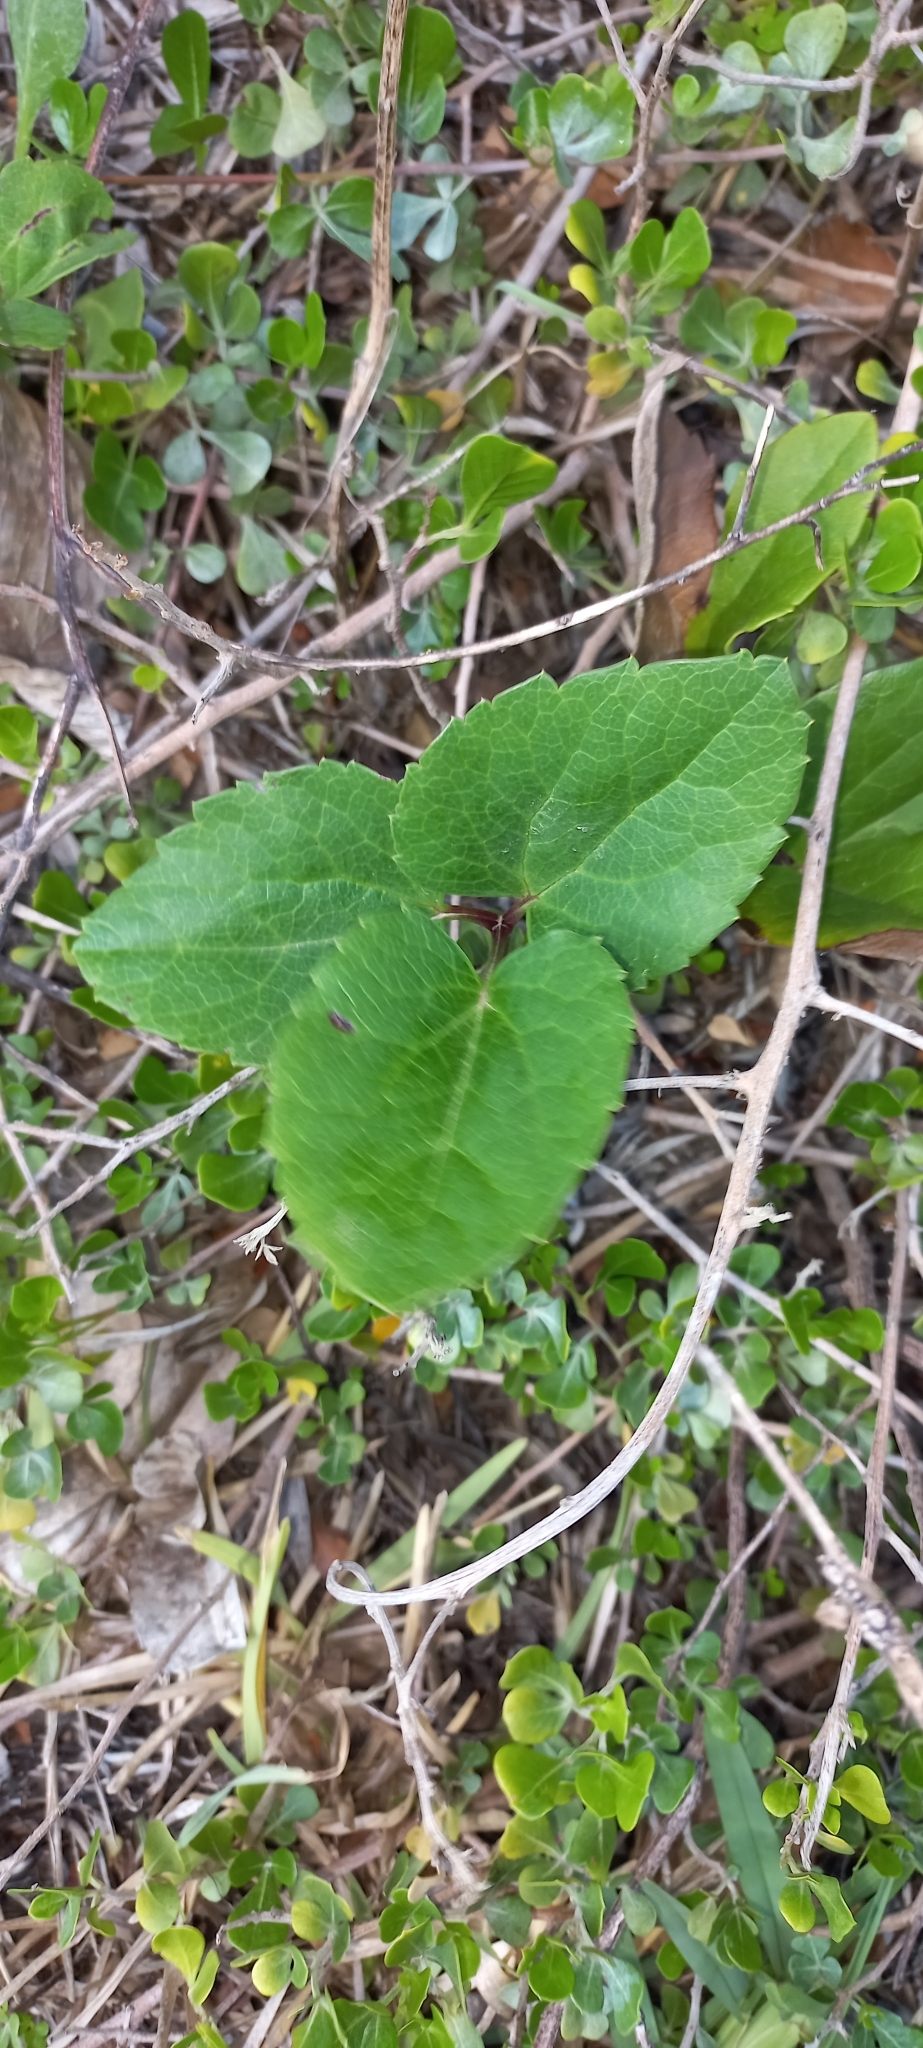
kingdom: Plantae
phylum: Tracheophyta
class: Magnoliopsida
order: Ranunculales
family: Ranunculaceae
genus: Knowltonia
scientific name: Knowltonia vesicatoria
